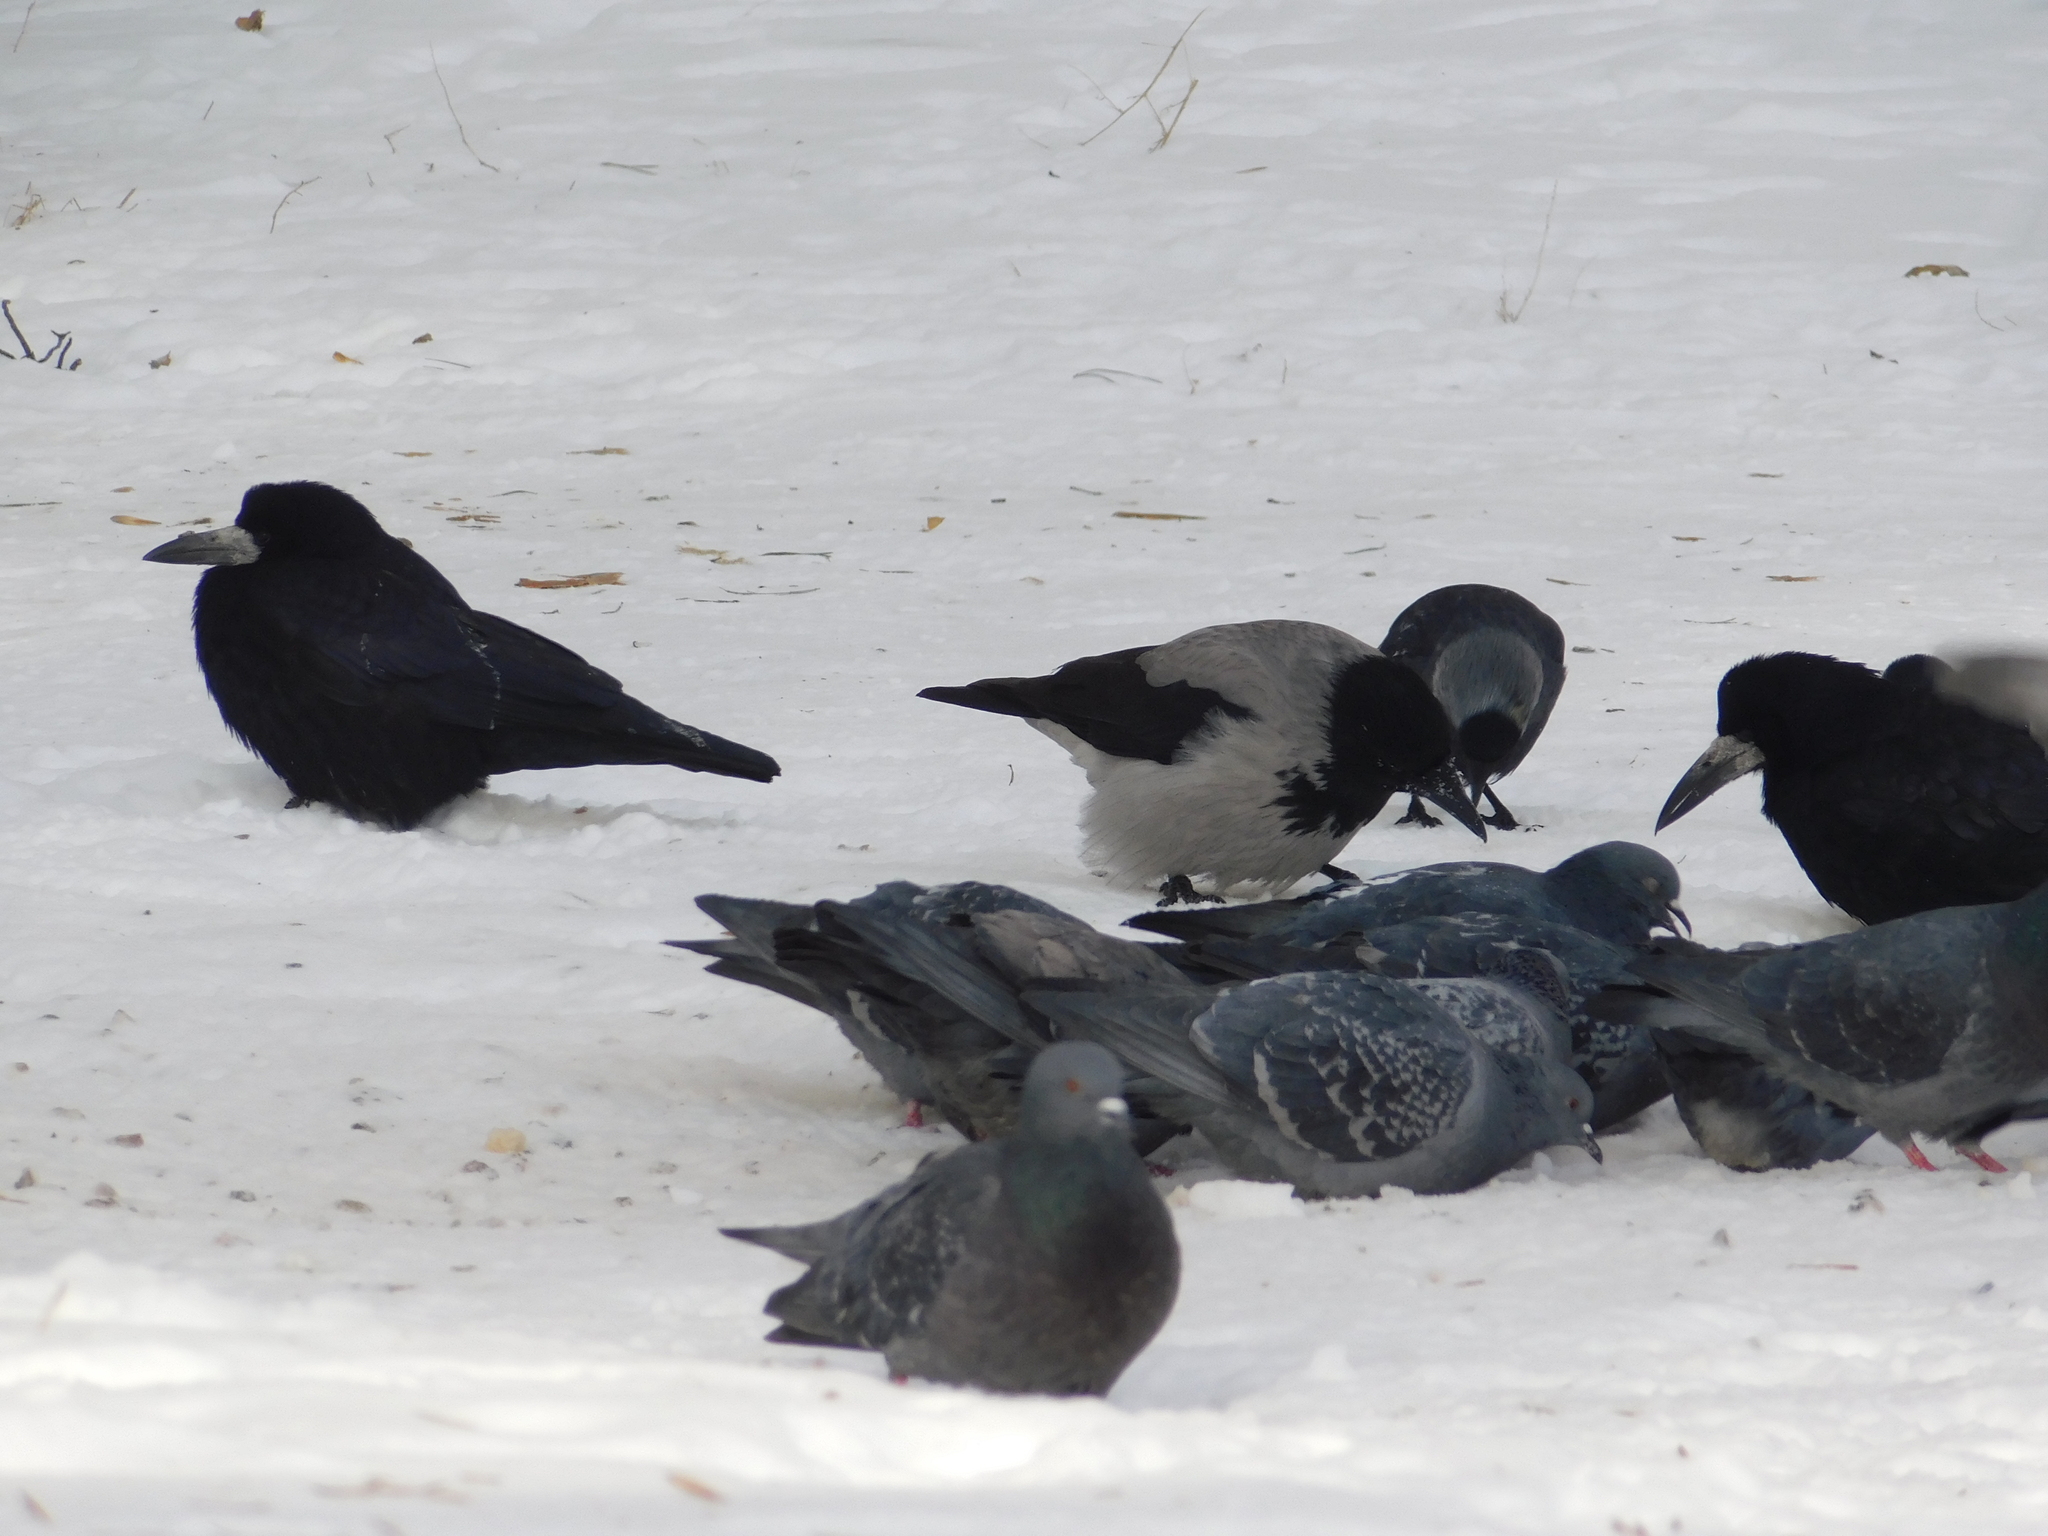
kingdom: Animalia
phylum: Chordata
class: Aves
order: Passeriformes
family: Corvidae
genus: Corvus
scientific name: Corvus cornix
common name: Hooded crow
